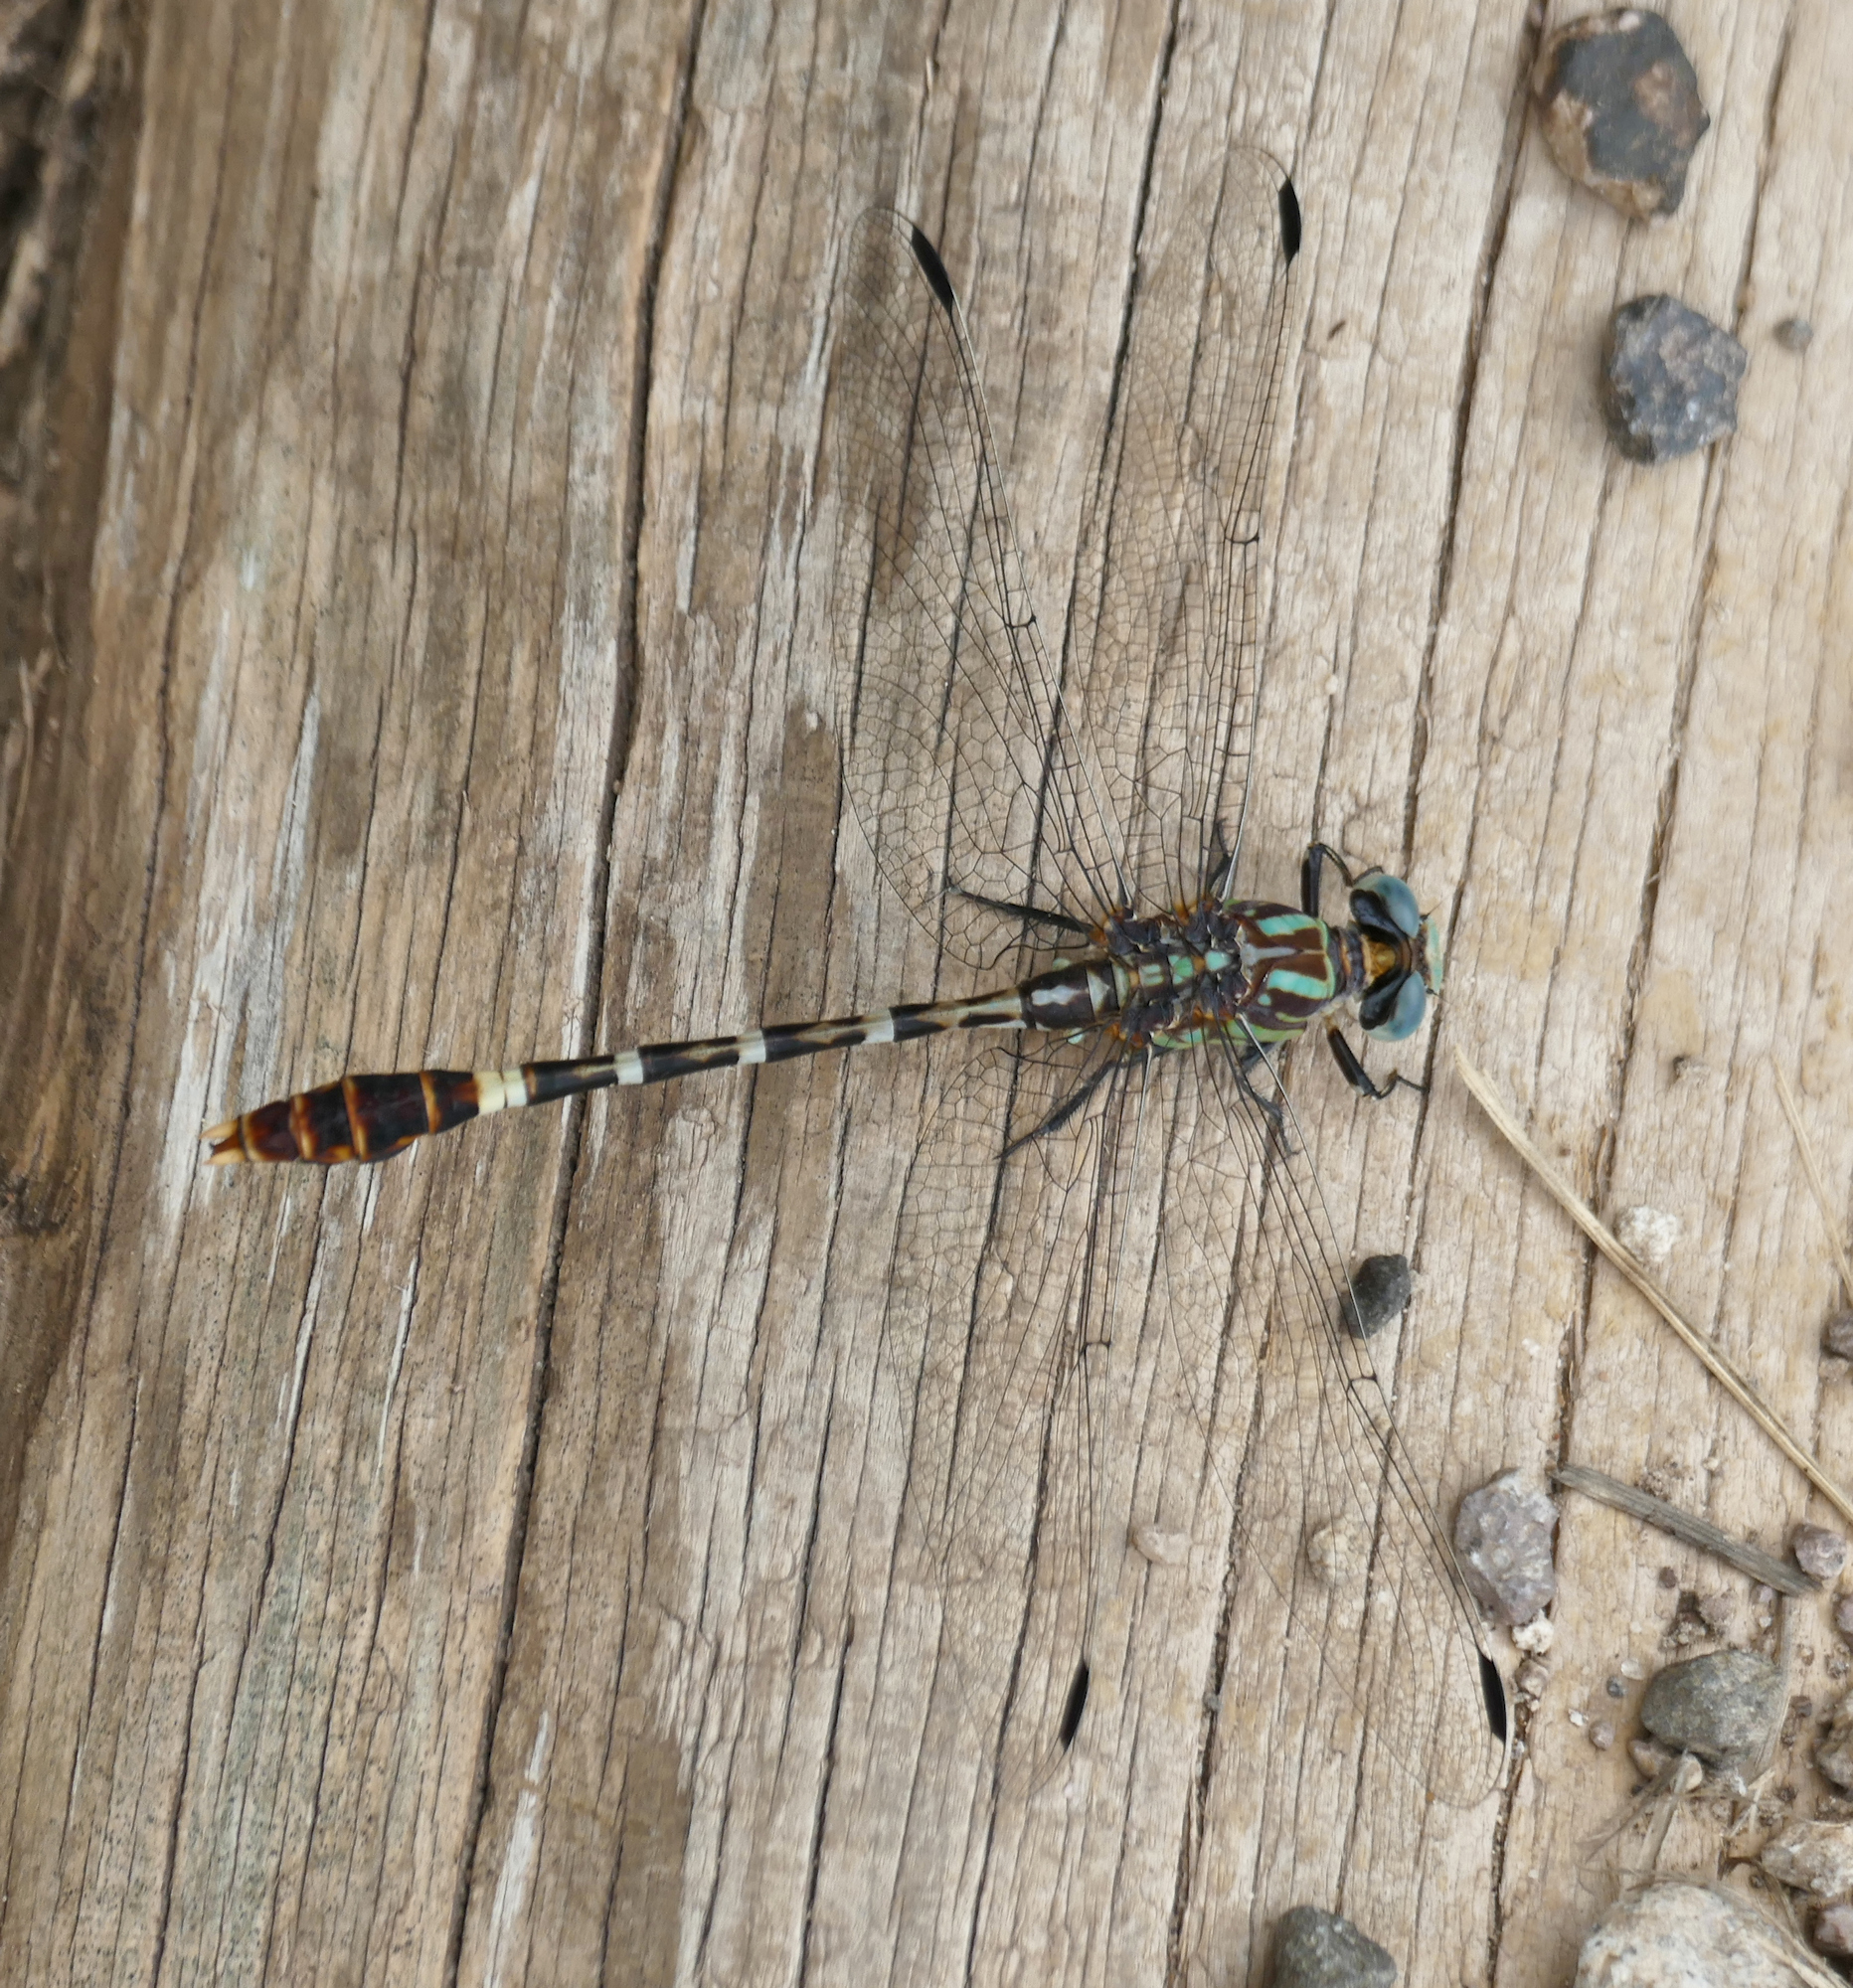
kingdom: Animalia
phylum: Arthropoda
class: Insecta
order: Odonata
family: Gomphidae
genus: Erpetogomphus
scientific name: Erpetogomphus lampropeltis
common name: Serpent ringtail
